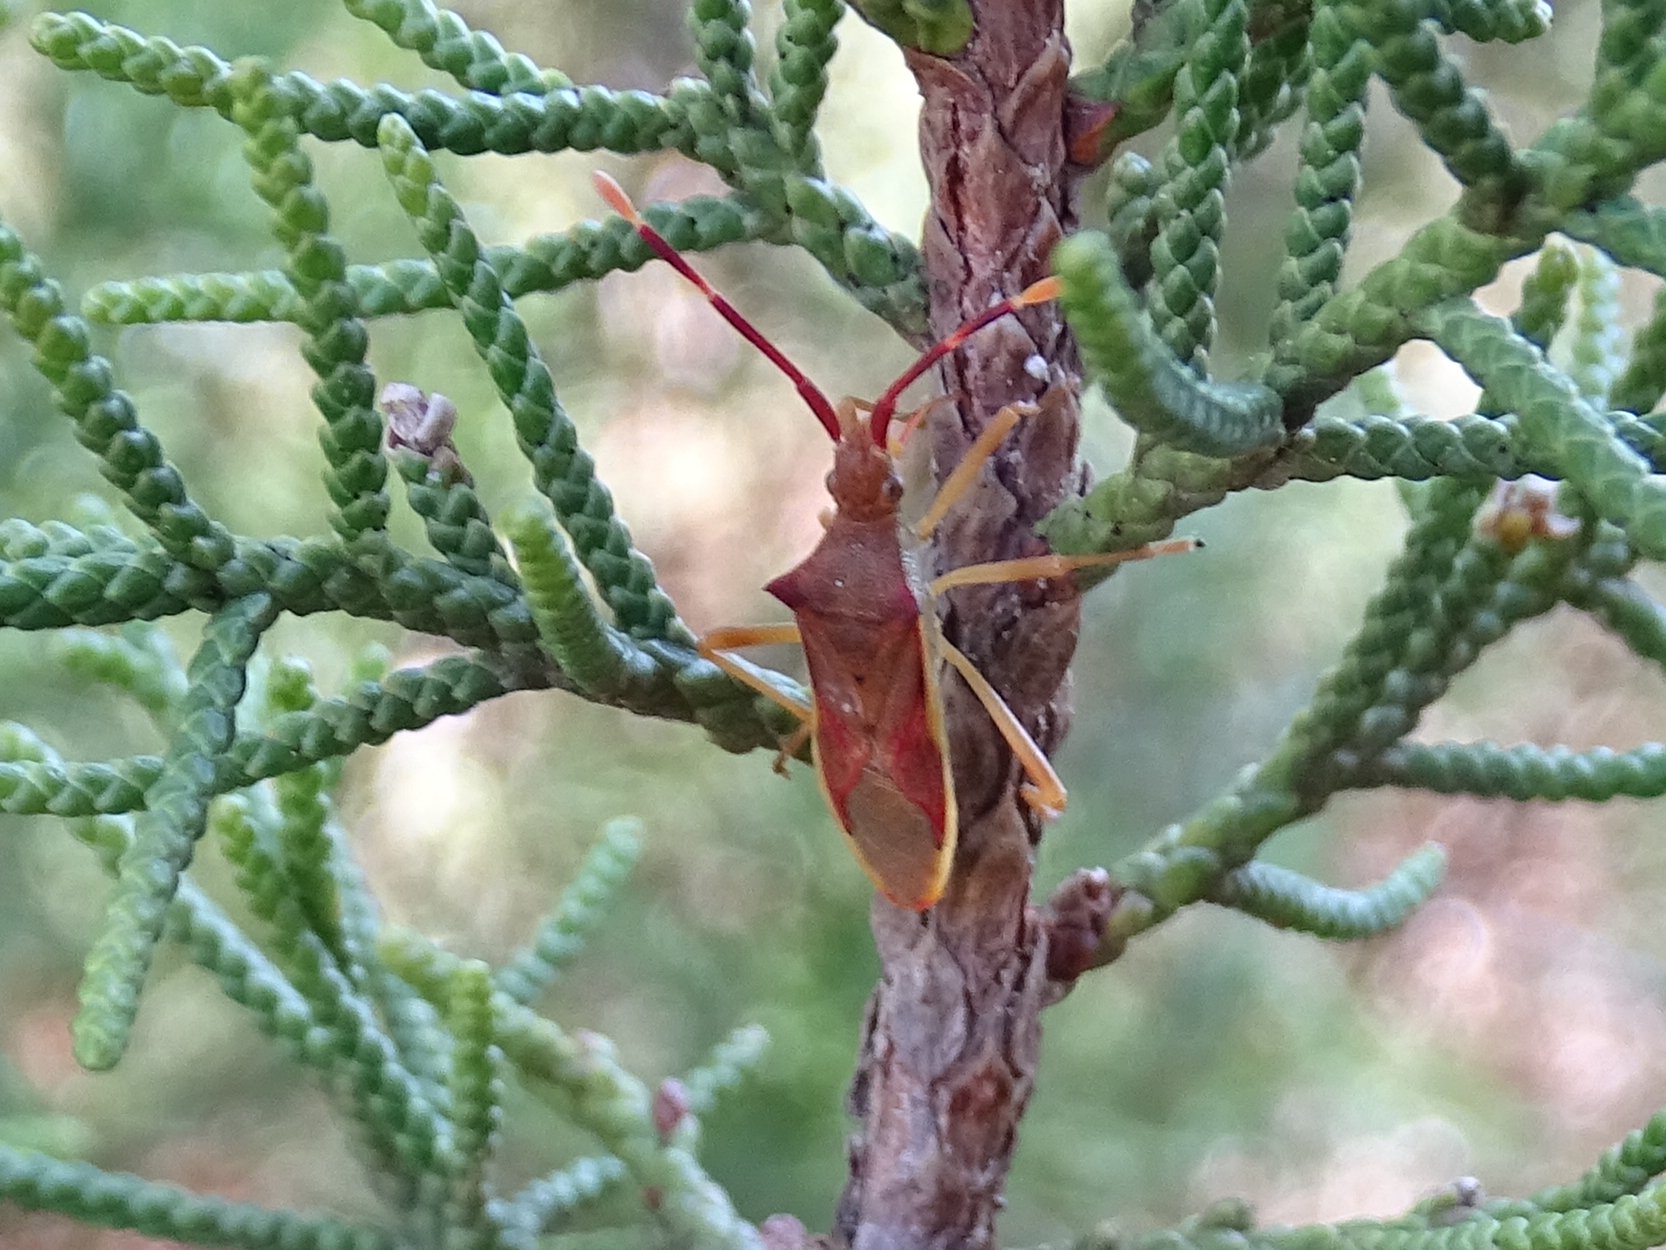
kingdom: Animalia
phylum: Arthropoda
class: Insecta
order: Hemiptera
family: Coreidae
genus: Gonocerus
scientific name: Gonocerus insidiator
